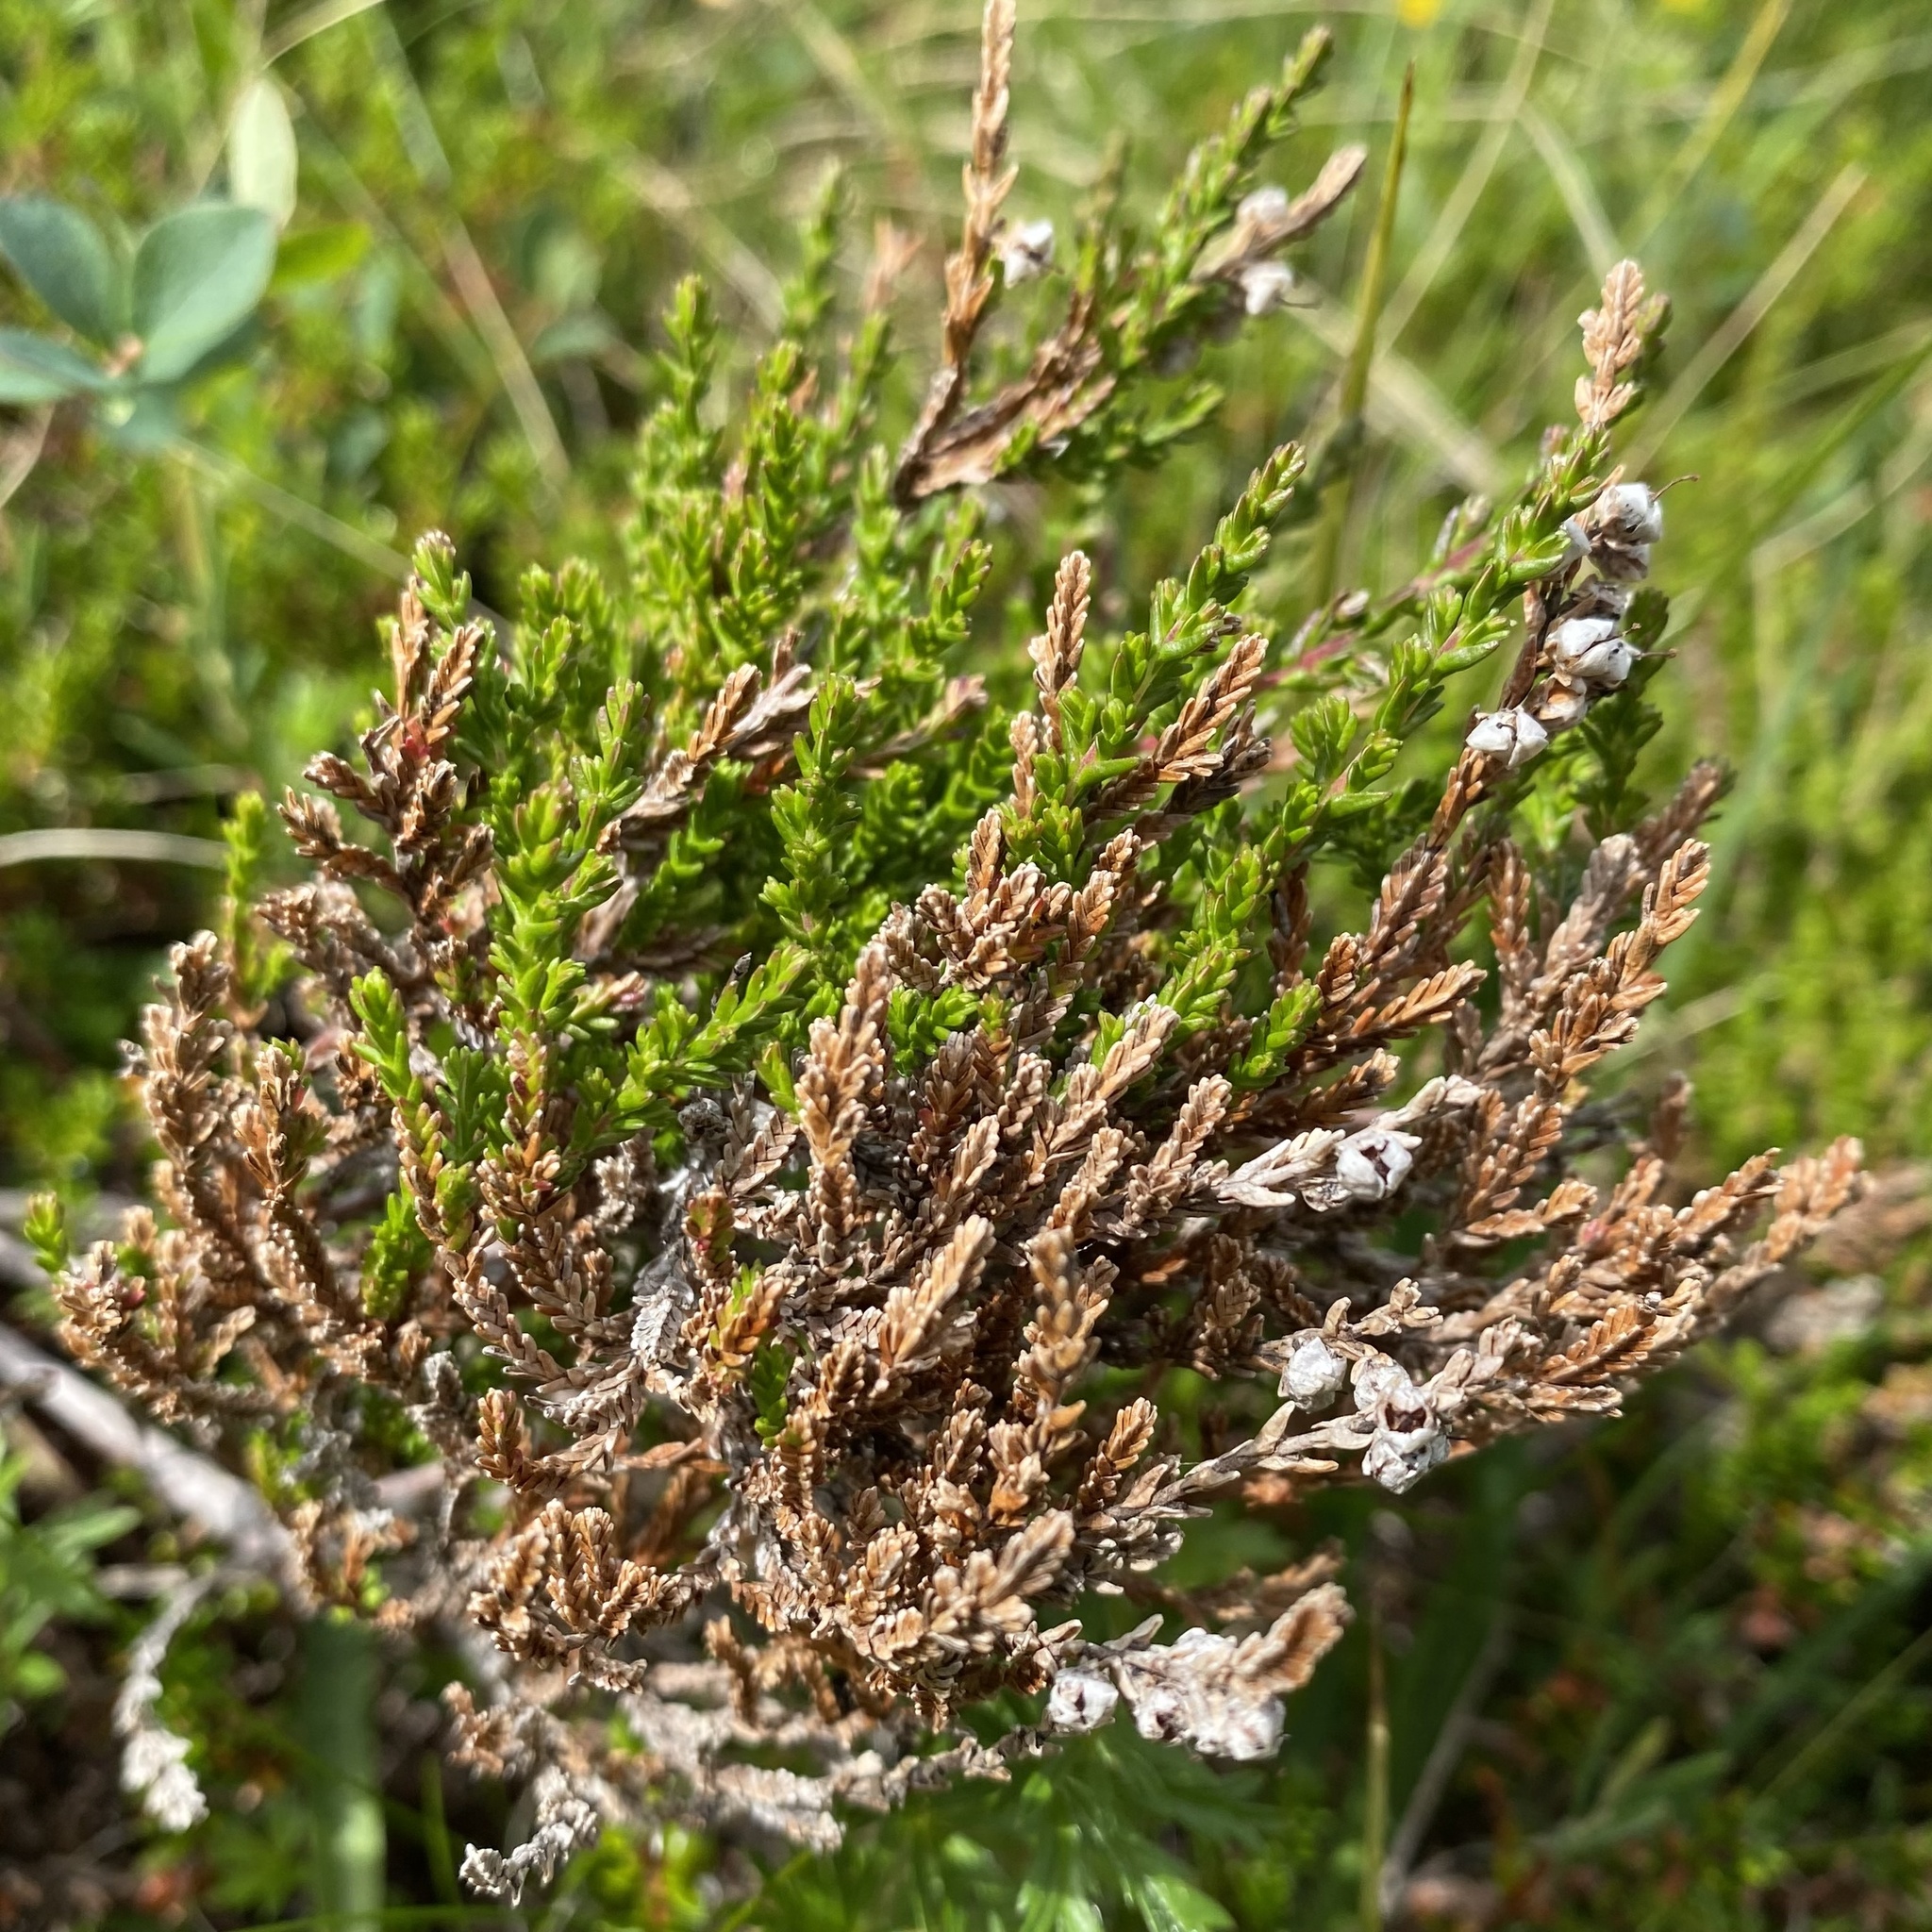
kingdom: Plantae
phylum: Tracheophyta
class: Magnoliopsida
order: Ericales
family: Ericaceae
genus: Calluna
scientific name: Calluna vulgaris
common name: Heather
